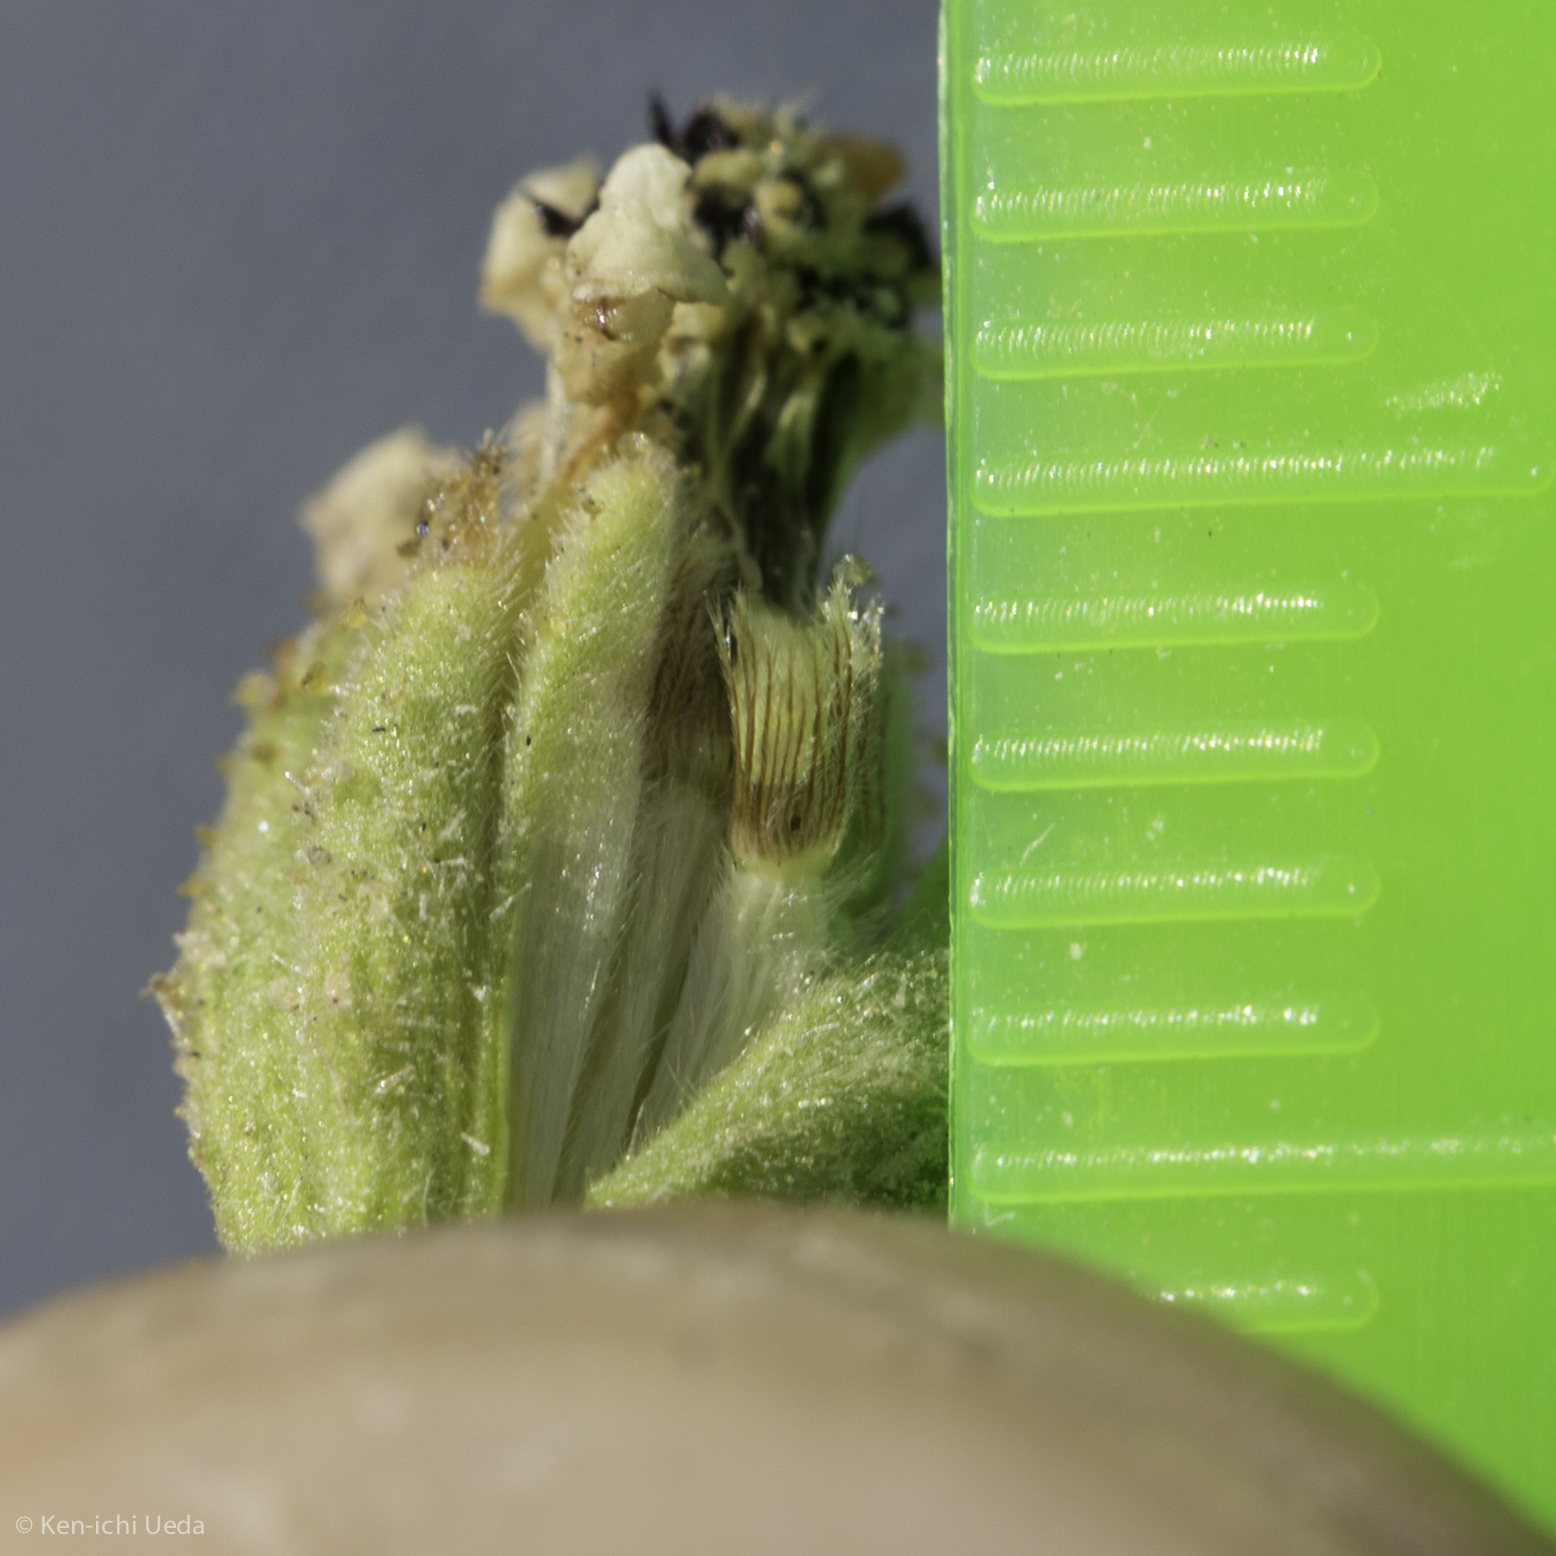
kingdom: Plantae
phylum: Tracheophyta
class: Magnoliopsida
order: Asterales
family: Asteraceae
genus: Blepharizonia
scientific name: Blepharizonia plumosa
